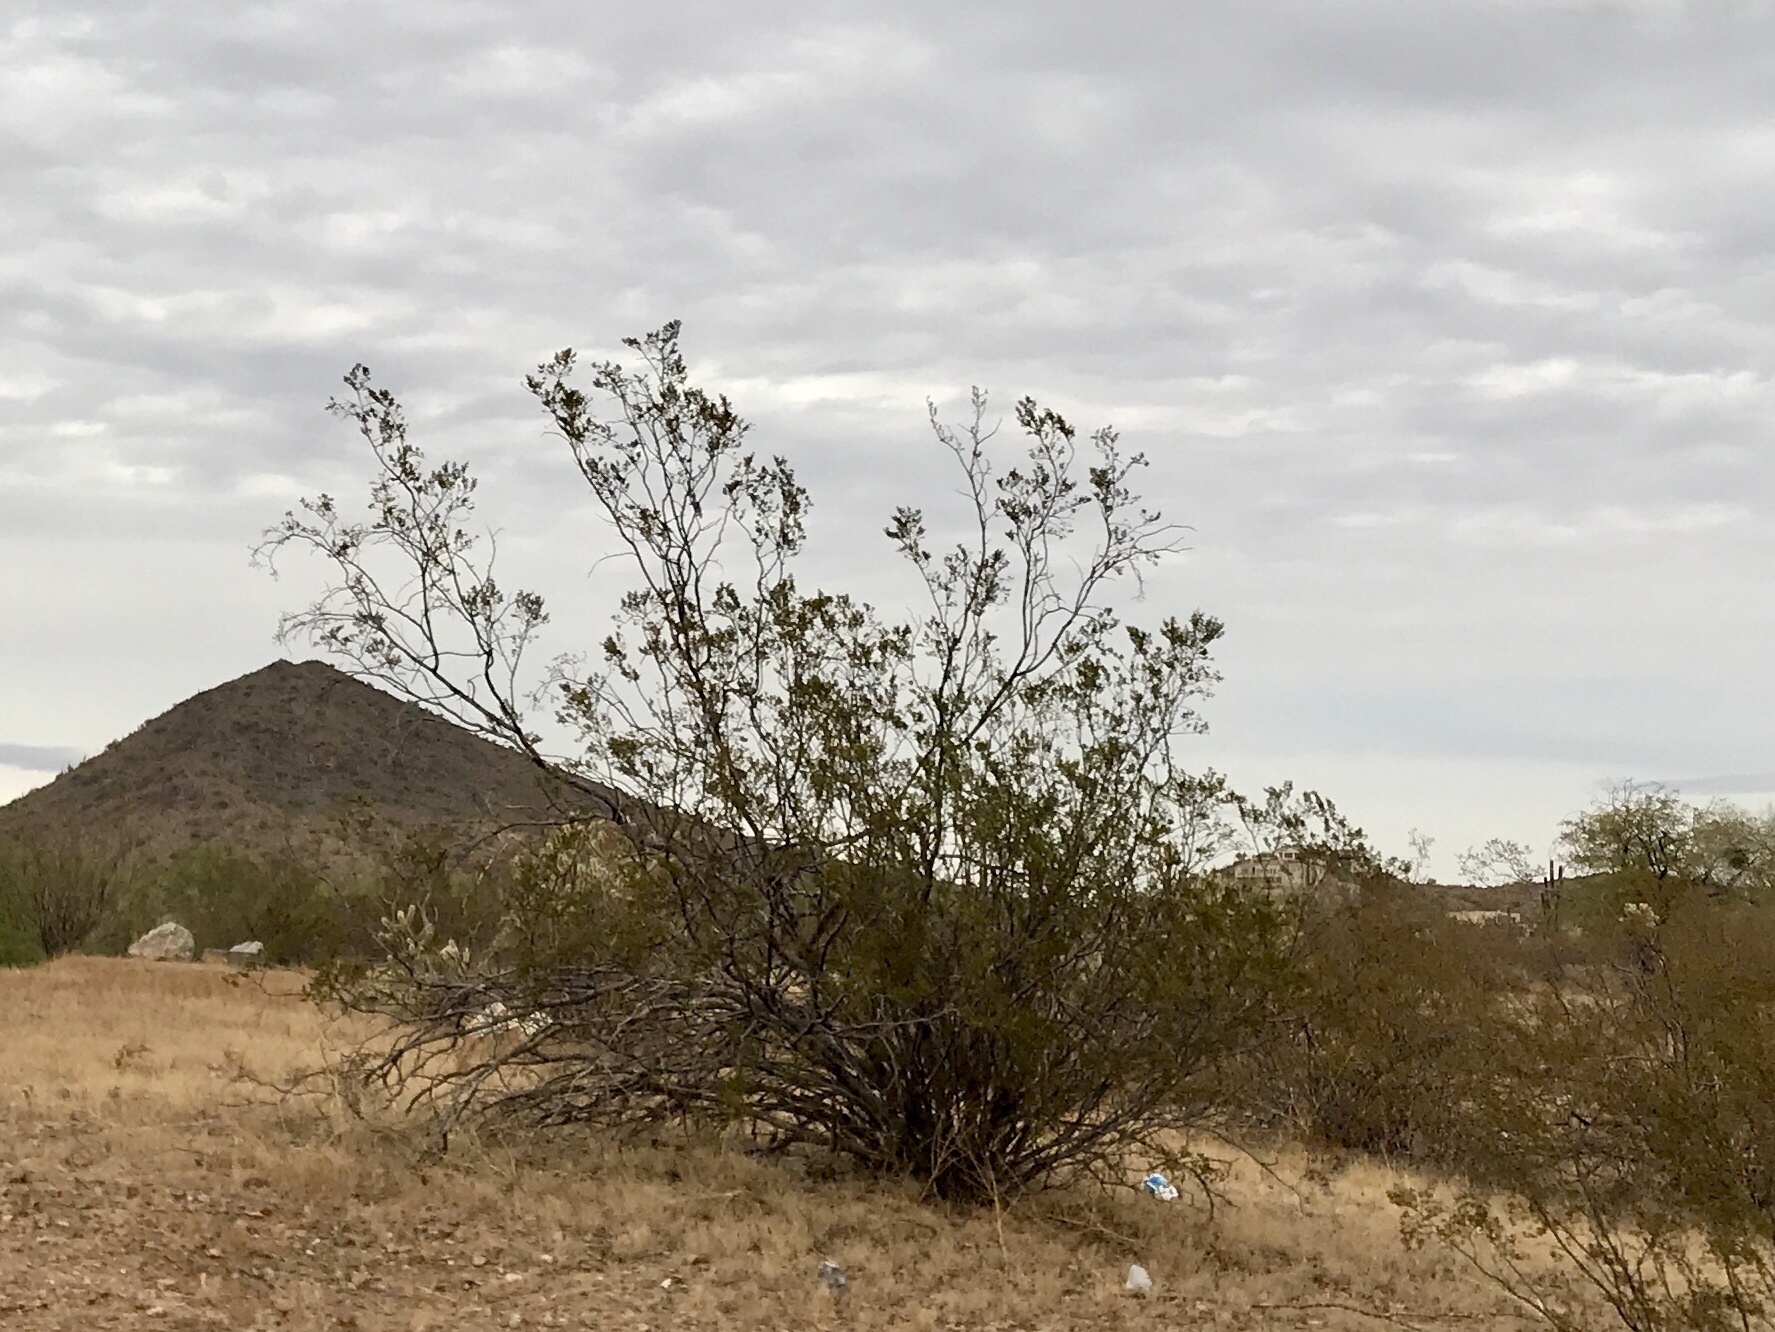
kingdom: Plantae
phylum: Tracheophyta
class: Magnoliopsida
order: Zygophyllales
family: Zygophyllaceae
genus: Larrea
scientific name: Larrea tridentata
